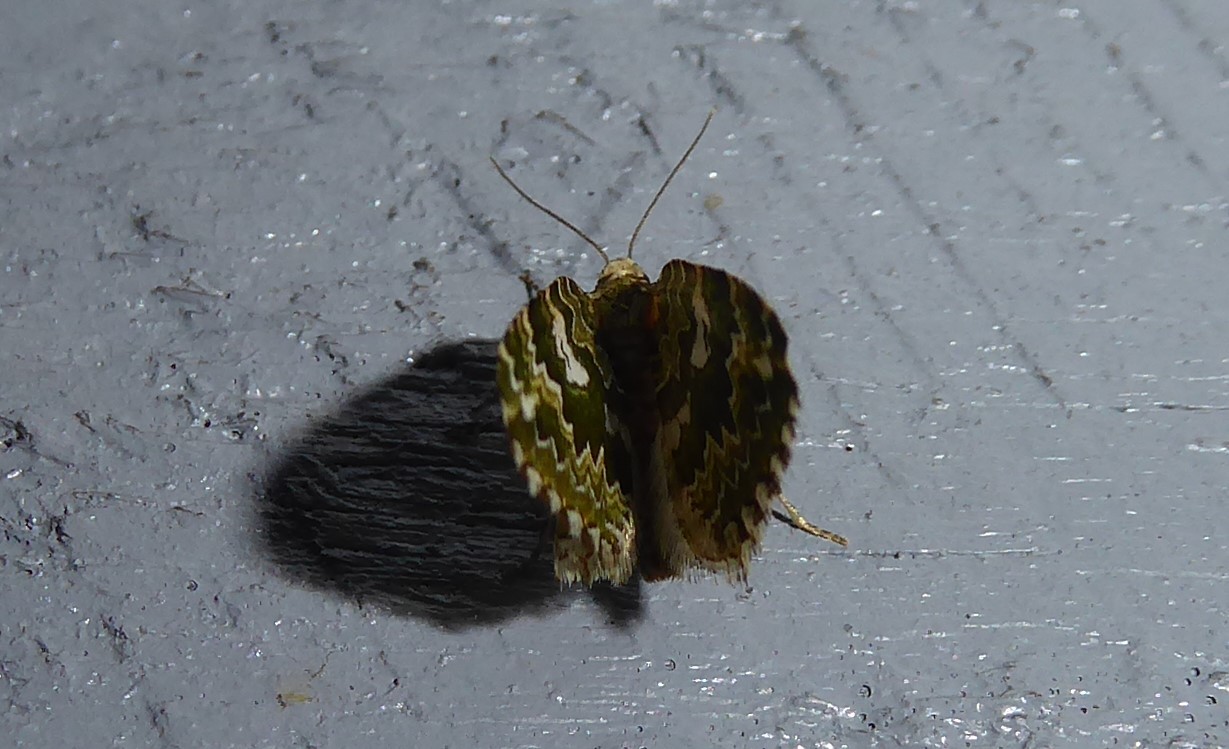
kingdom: Animalia
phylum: Arthropoda
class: Insecta
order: Lepidoptera
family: Geometridae
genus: Asaphodes
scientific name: Asaphodes beata
